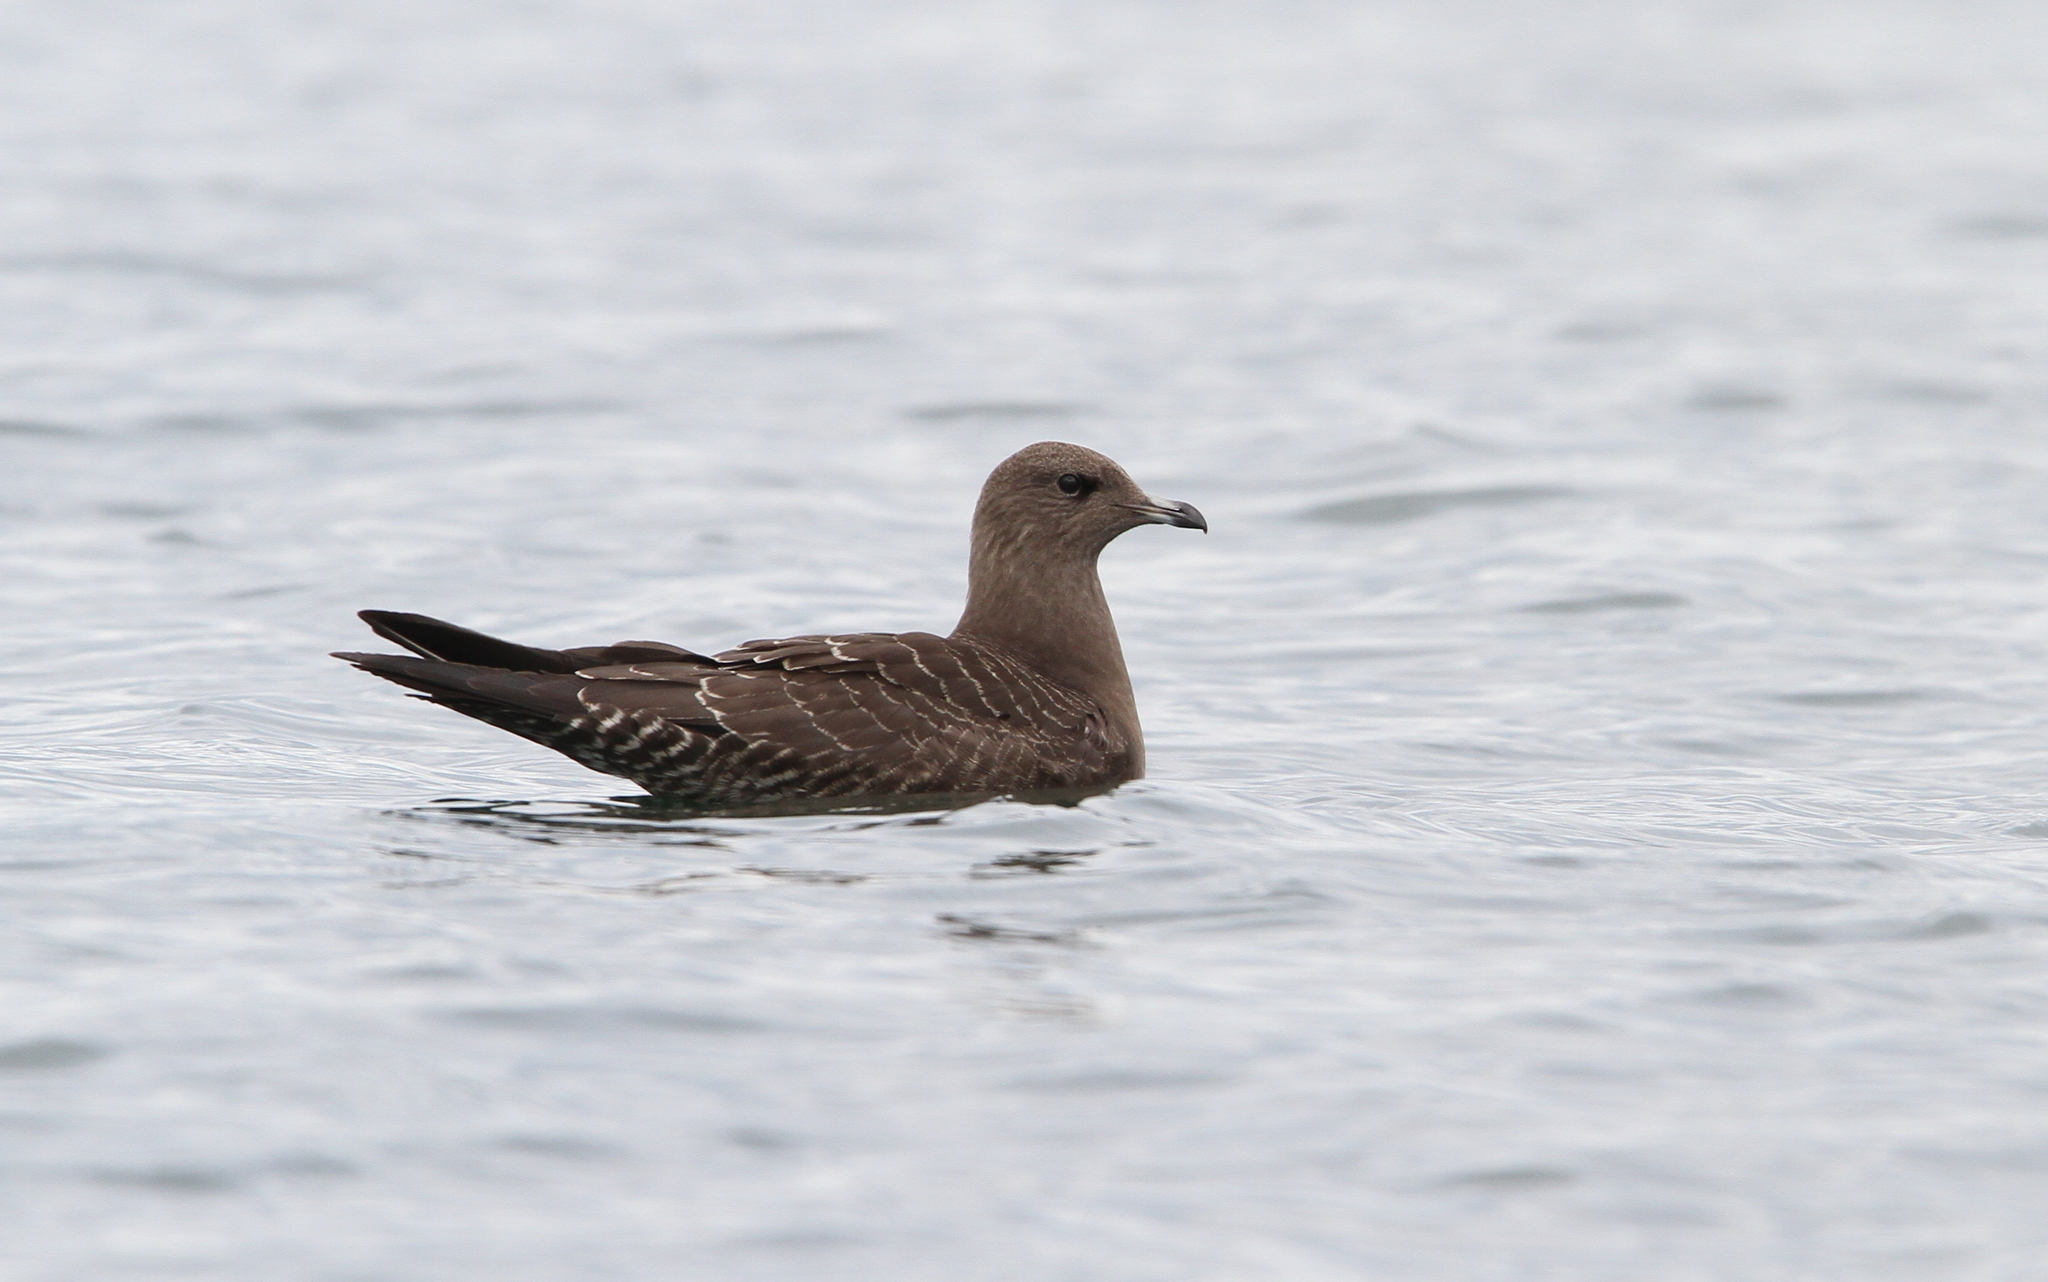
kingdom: Animalia
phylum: Chordata
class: Aves
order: Charadriiformes
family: Stercorariidae
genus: Stercorarius
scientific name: Stercorarius longicaudus
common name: Long-tailed jaeger
